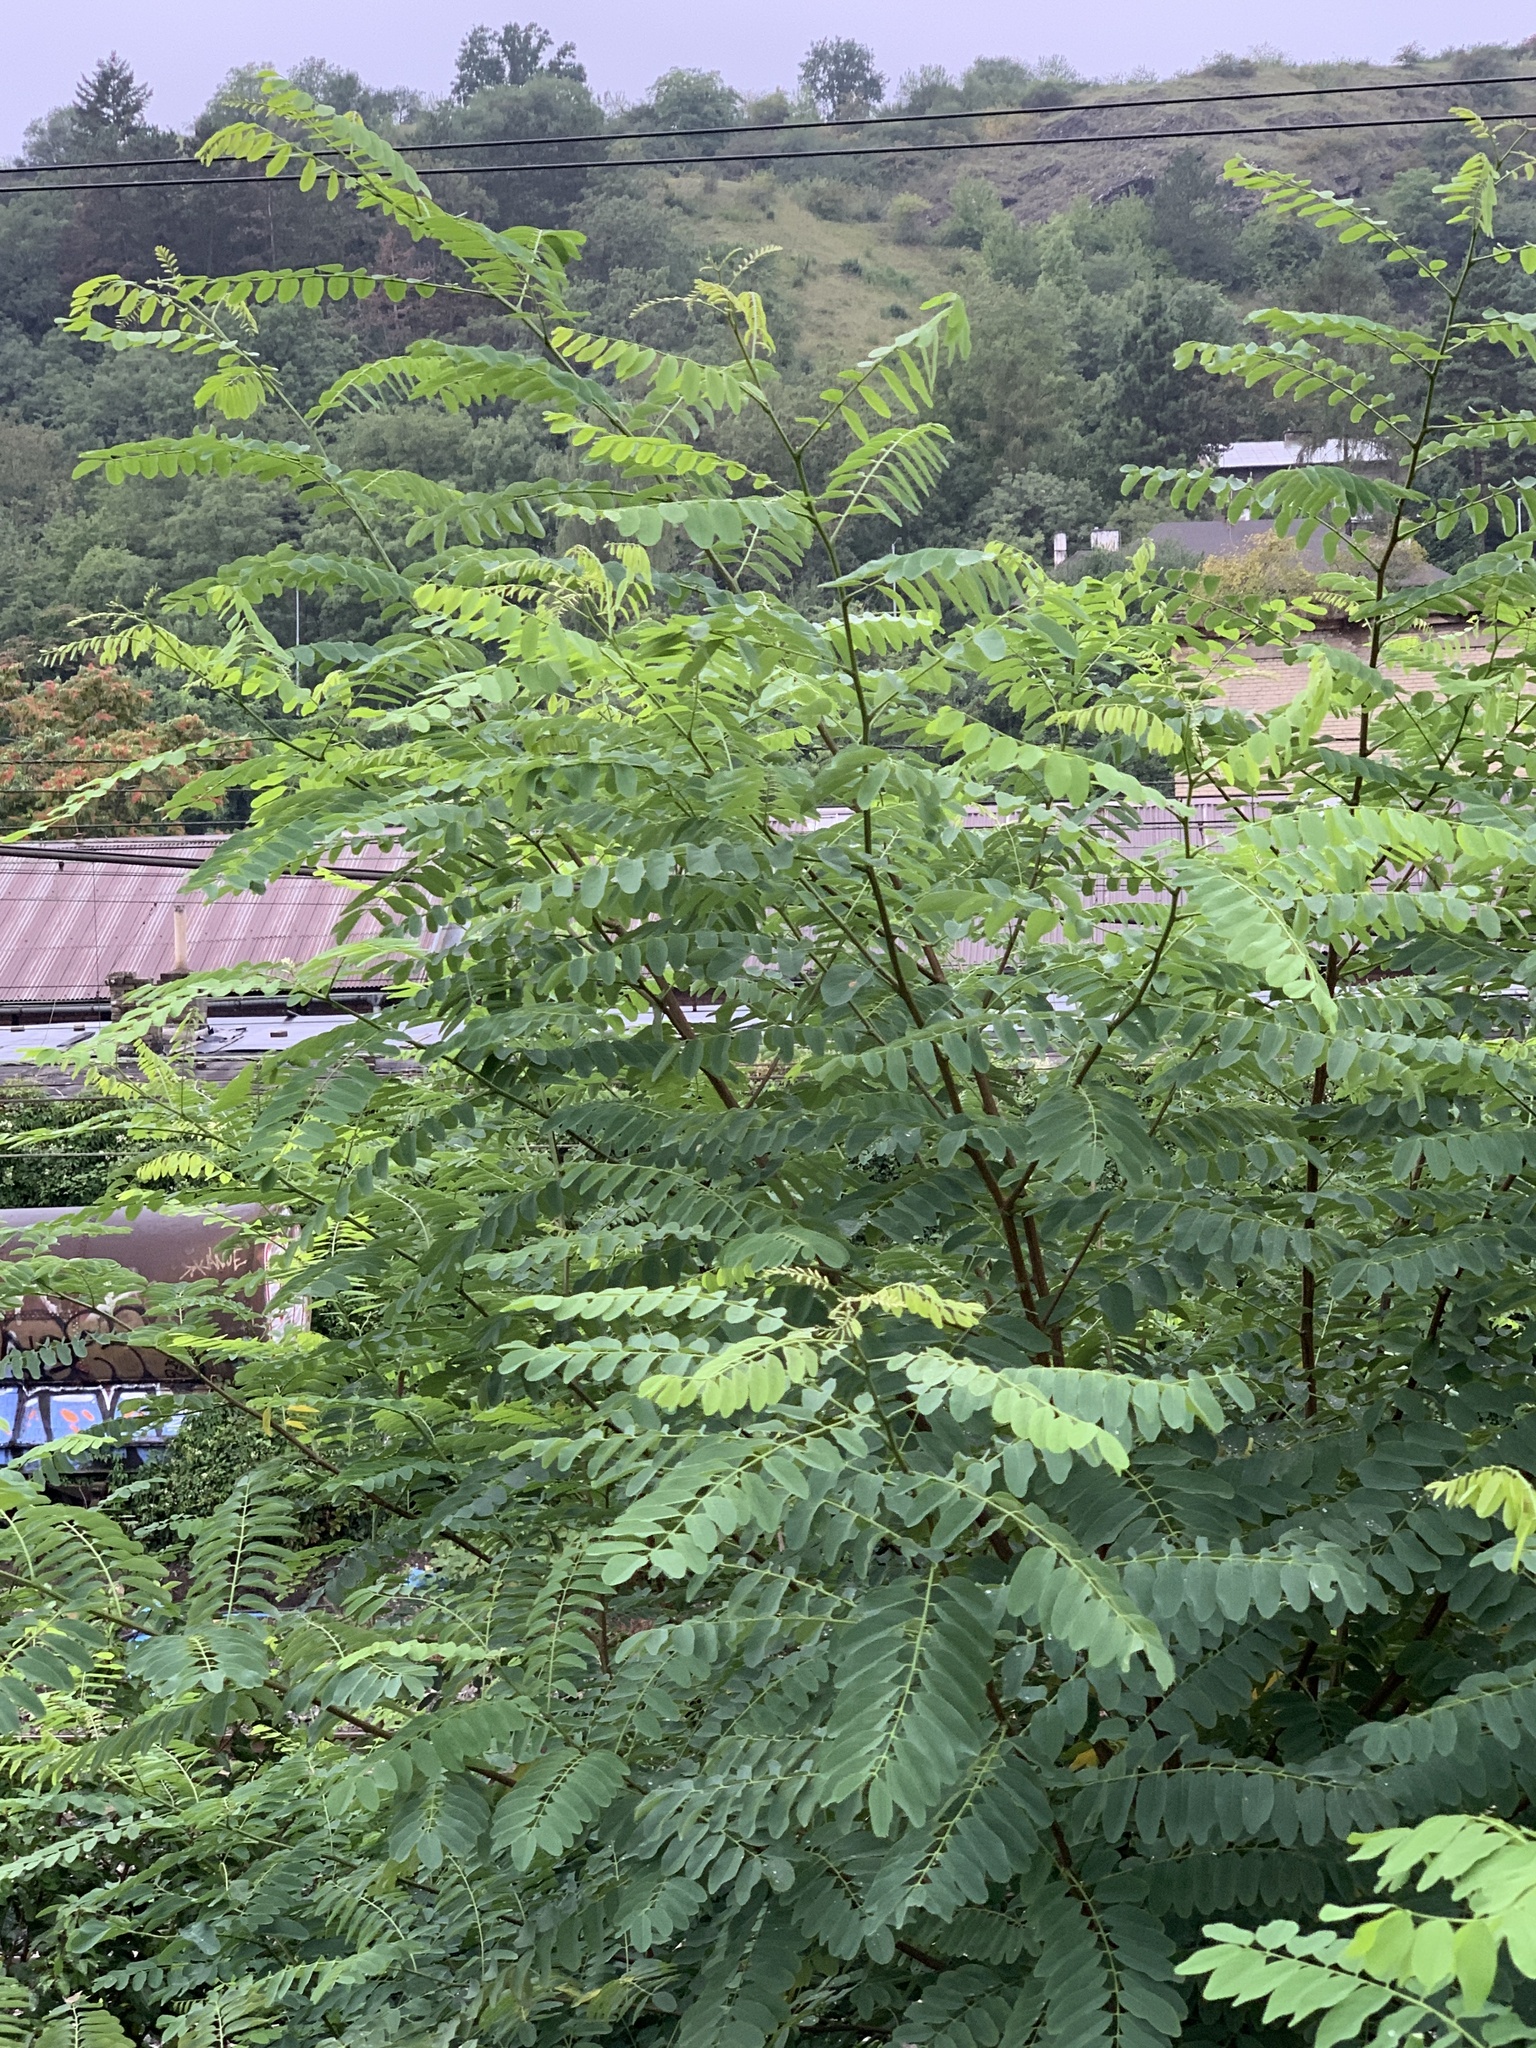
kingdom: Plantae
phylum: Tracheophyta
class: Magnoliopsida
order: Fabales
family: Fabaceae
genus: Robinia
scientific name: Robinia pseudoacacia
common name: Black locust
